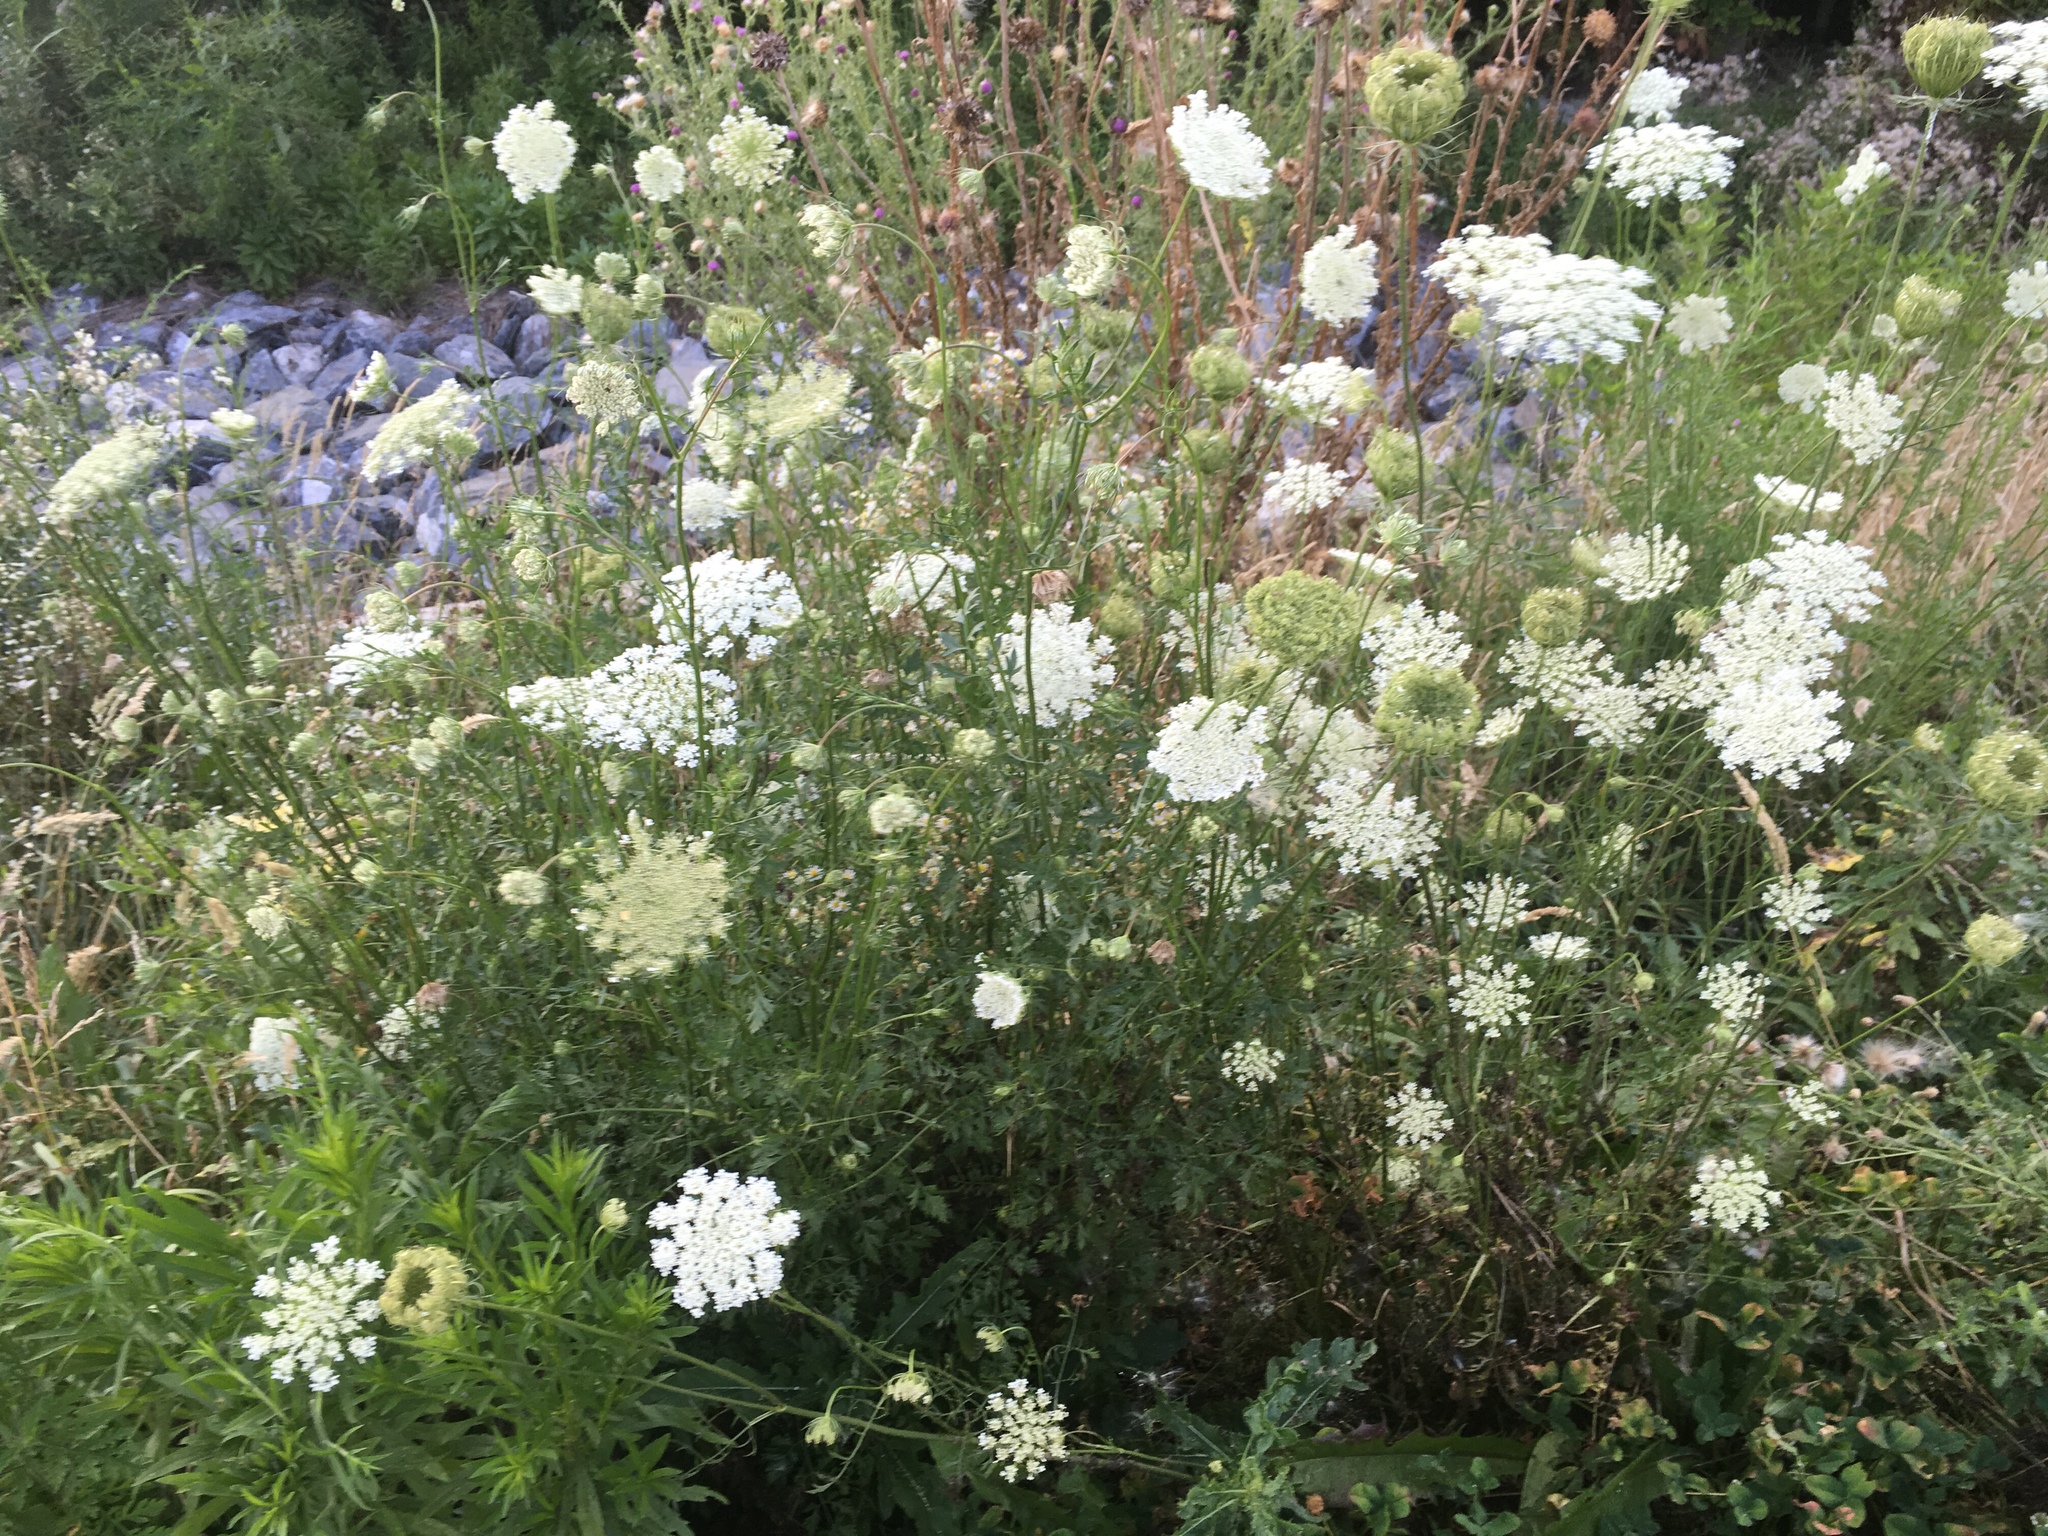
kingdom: Plantae
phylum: Tracheophyta
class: Magnoliopsida
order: Apiales
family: Apiaceae
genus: Daucus
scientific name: Daucus carota
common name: Wild carrot
